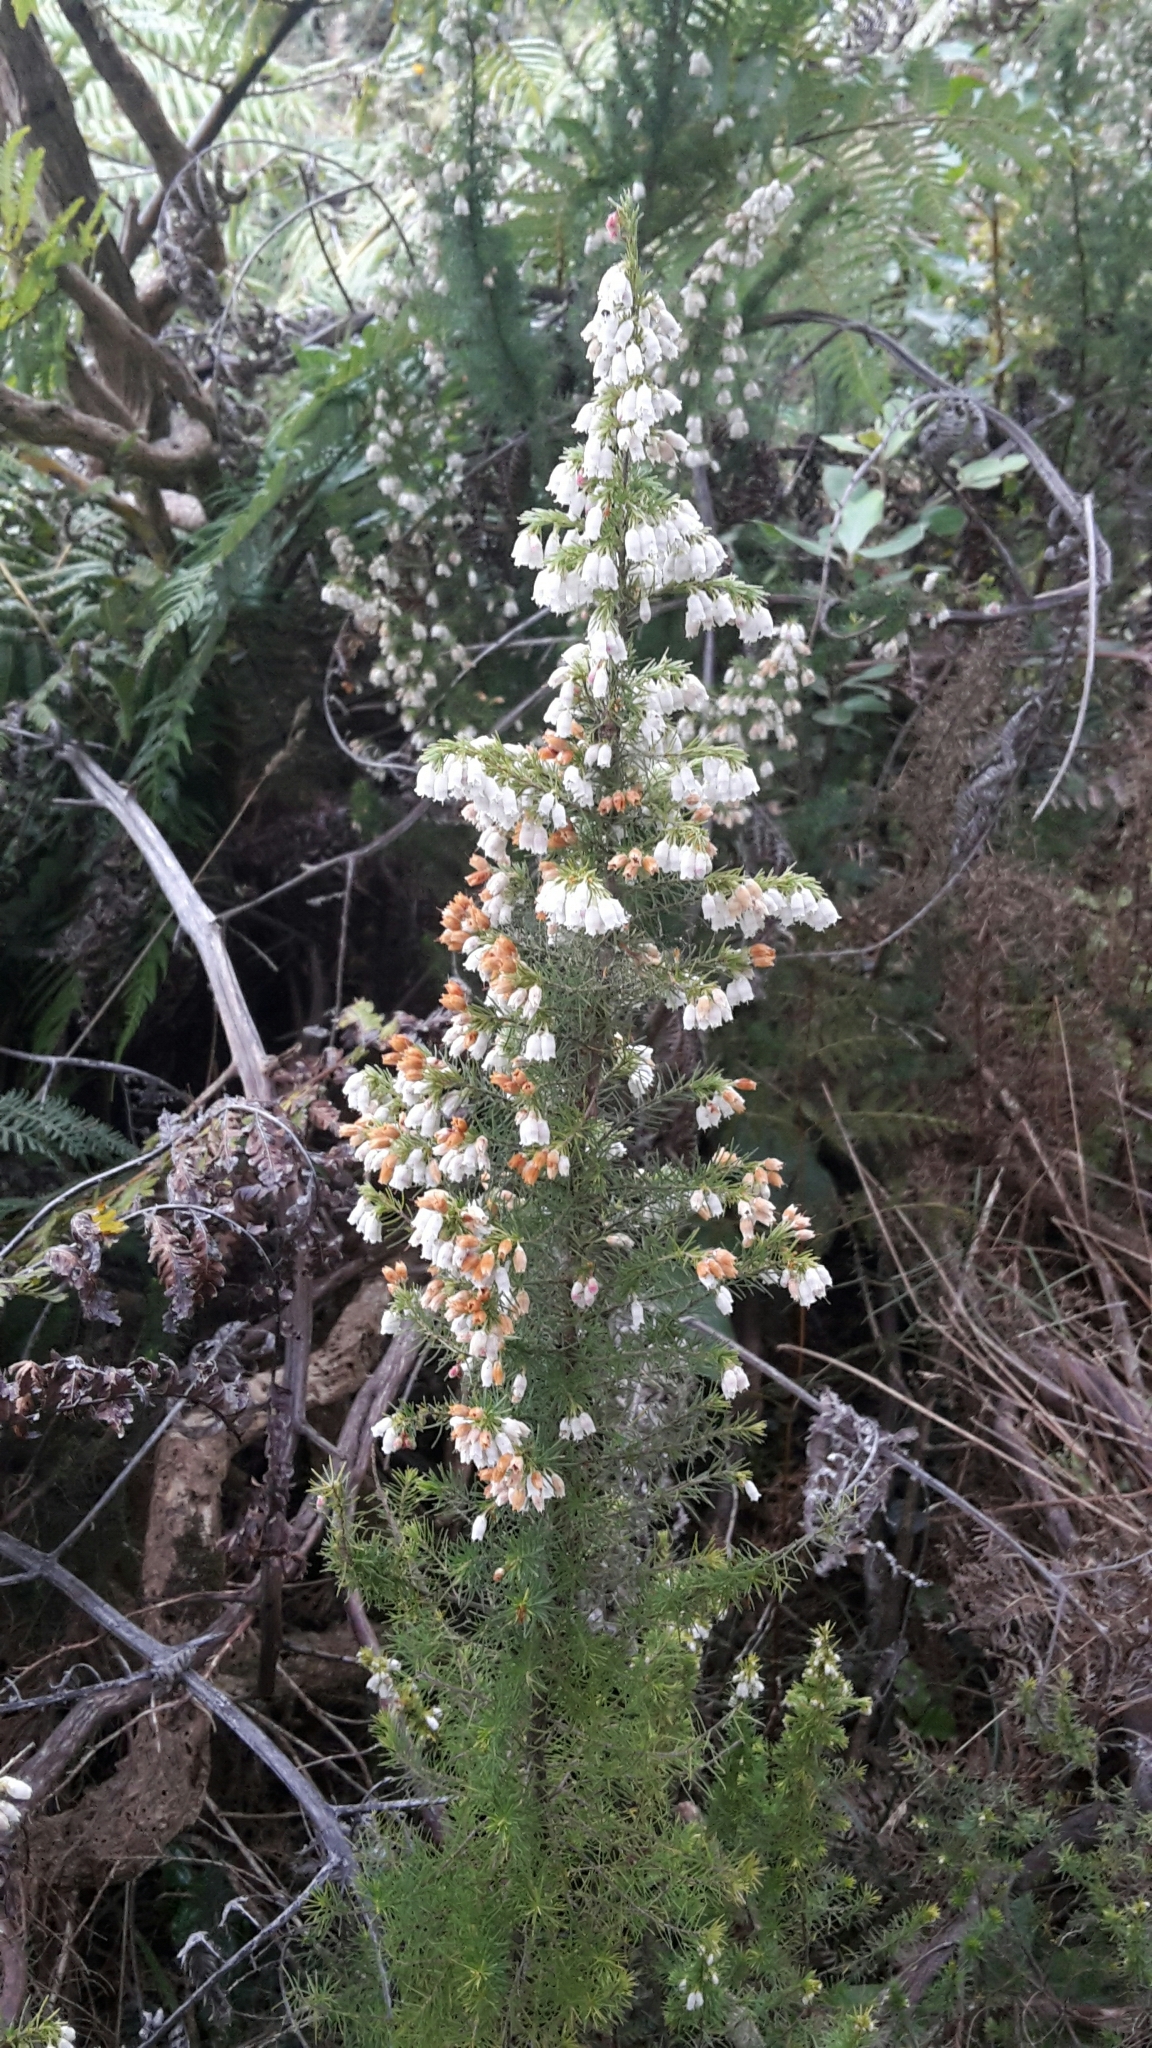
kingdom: Plantae
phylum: Tracheophyta
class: Magnoliopsida
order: Ericales
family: Ericaceae
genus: Erica
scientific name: Erica lusitanica
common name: Spanish heath
